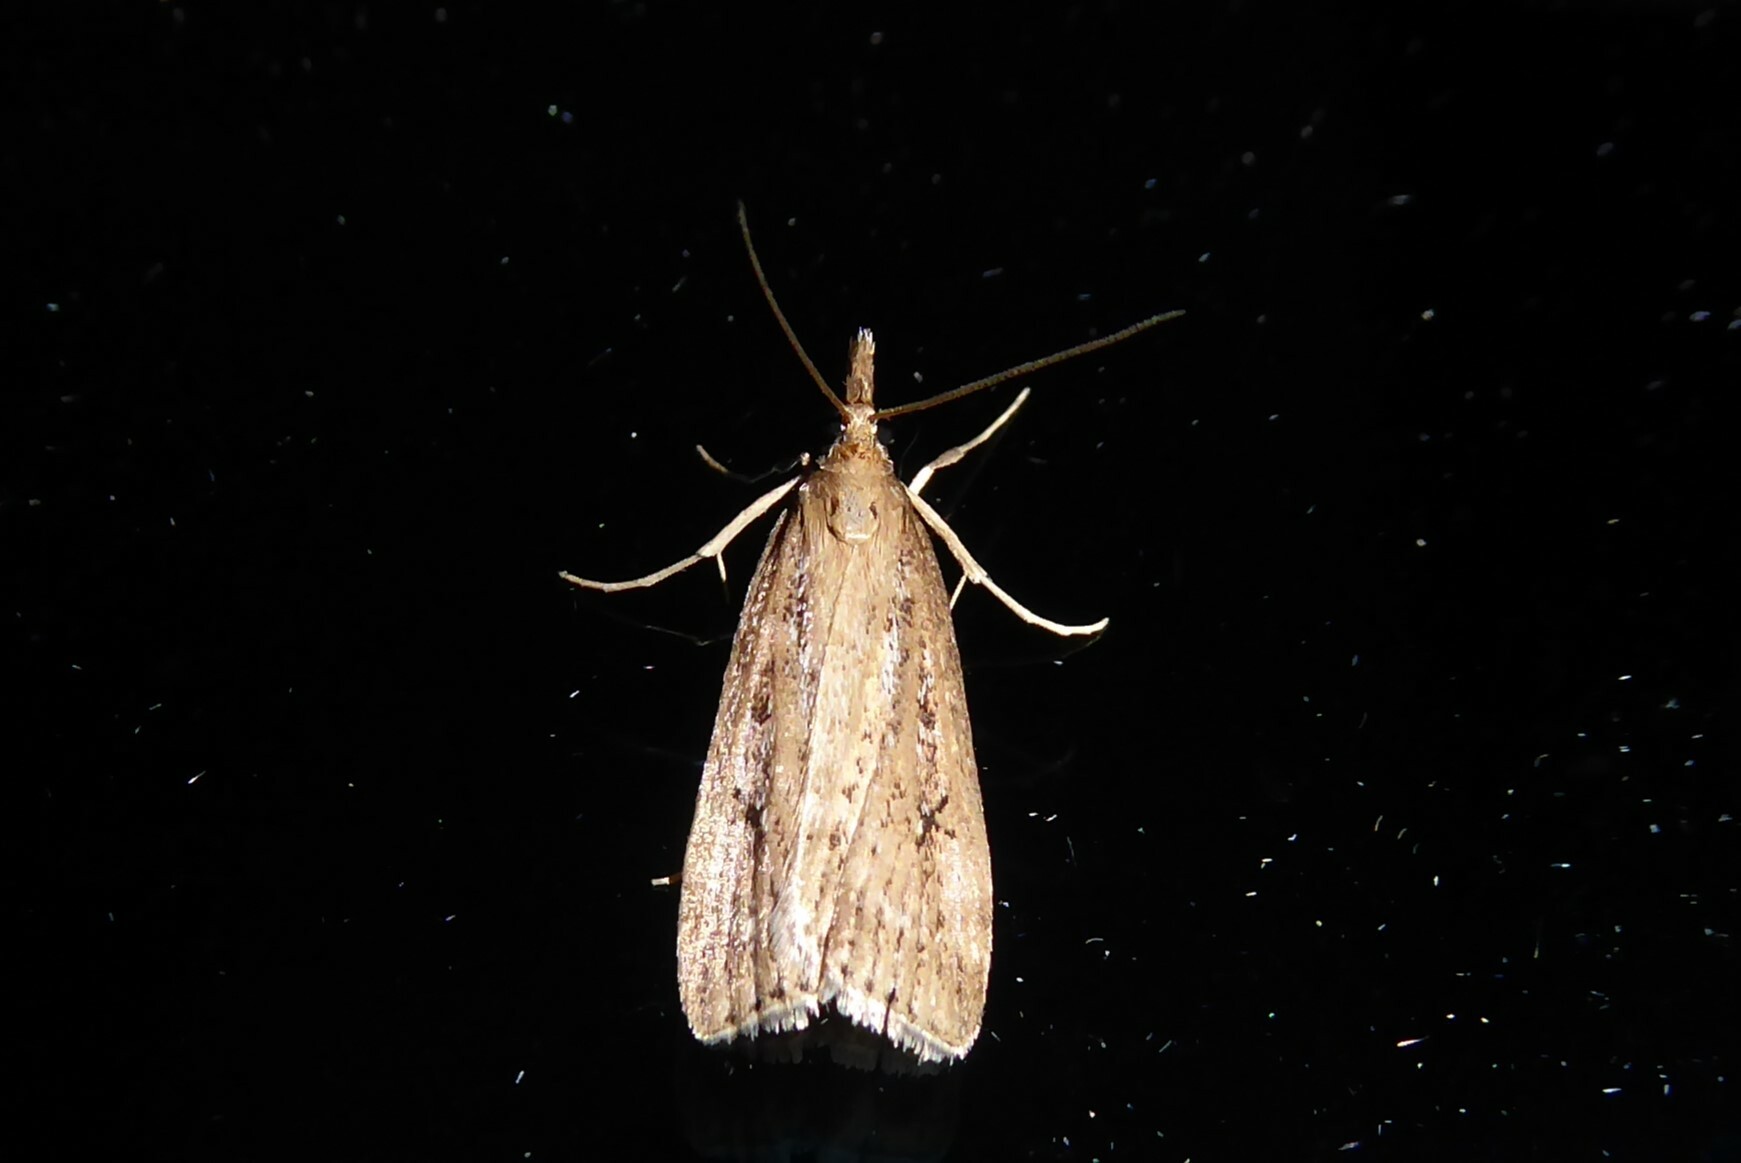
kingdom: Animalia
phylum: Arthropoda
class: Insecta
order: Lepidoptera
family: Crambidae
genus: Eudonia
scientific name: Eudonia octophora
